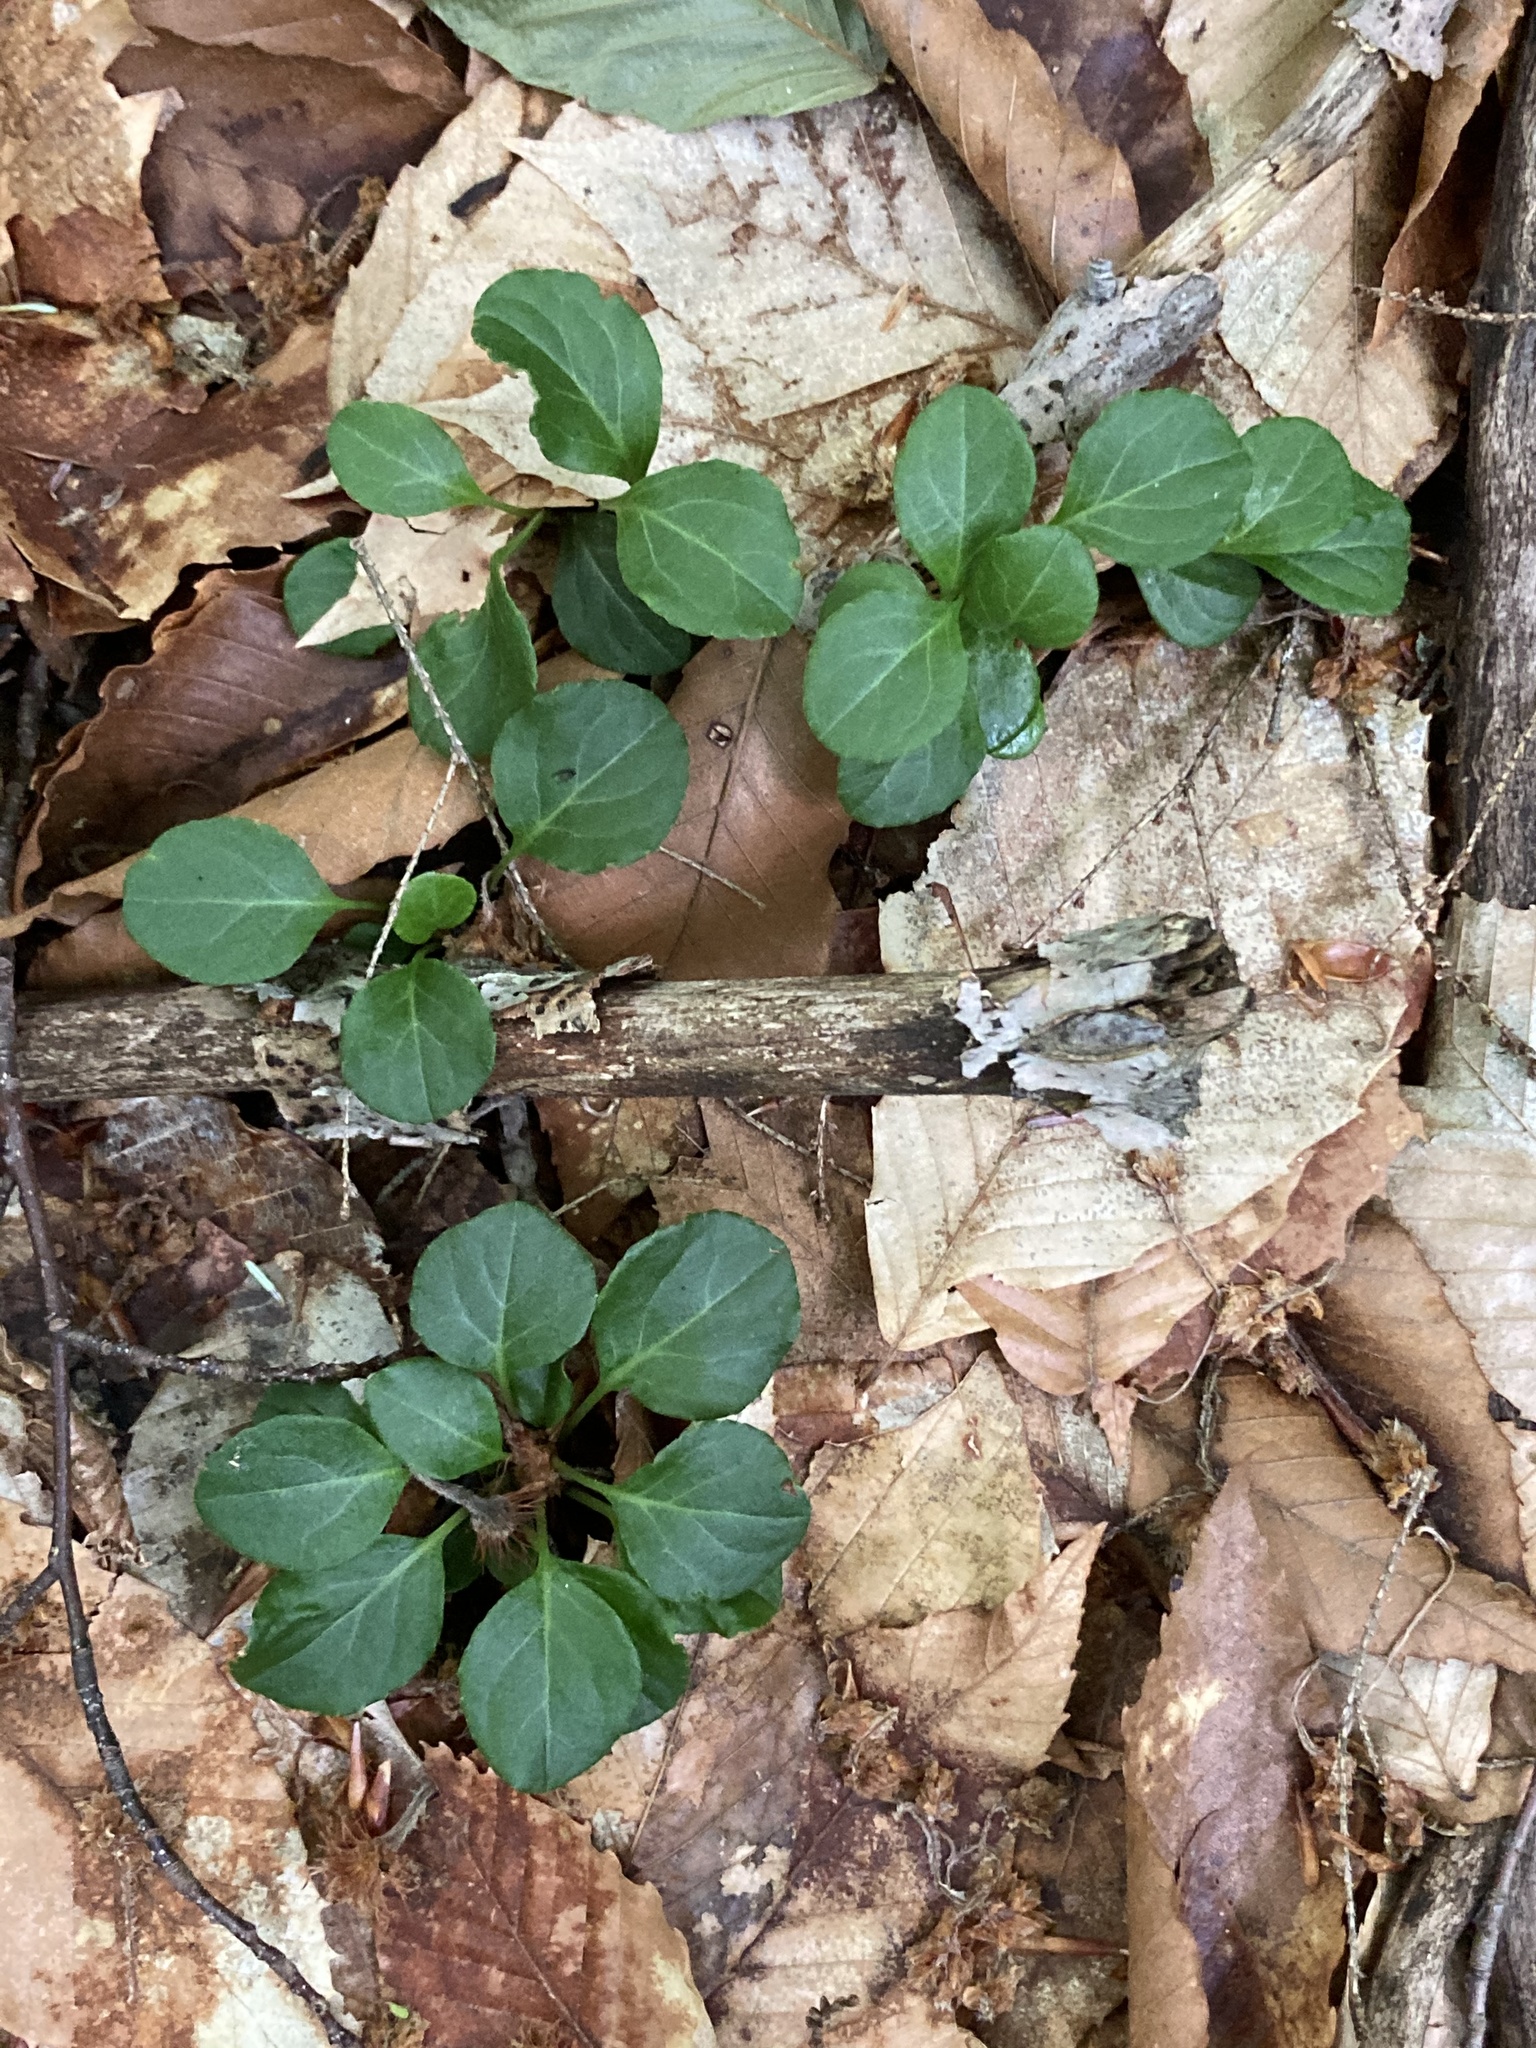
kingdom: Plantae
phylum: Tracheophyta
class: Magnoliopsida
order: Ericales
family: Ericaceae
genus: Pyrola
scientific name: Pyrola chlorantha
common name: Green wintergreen
